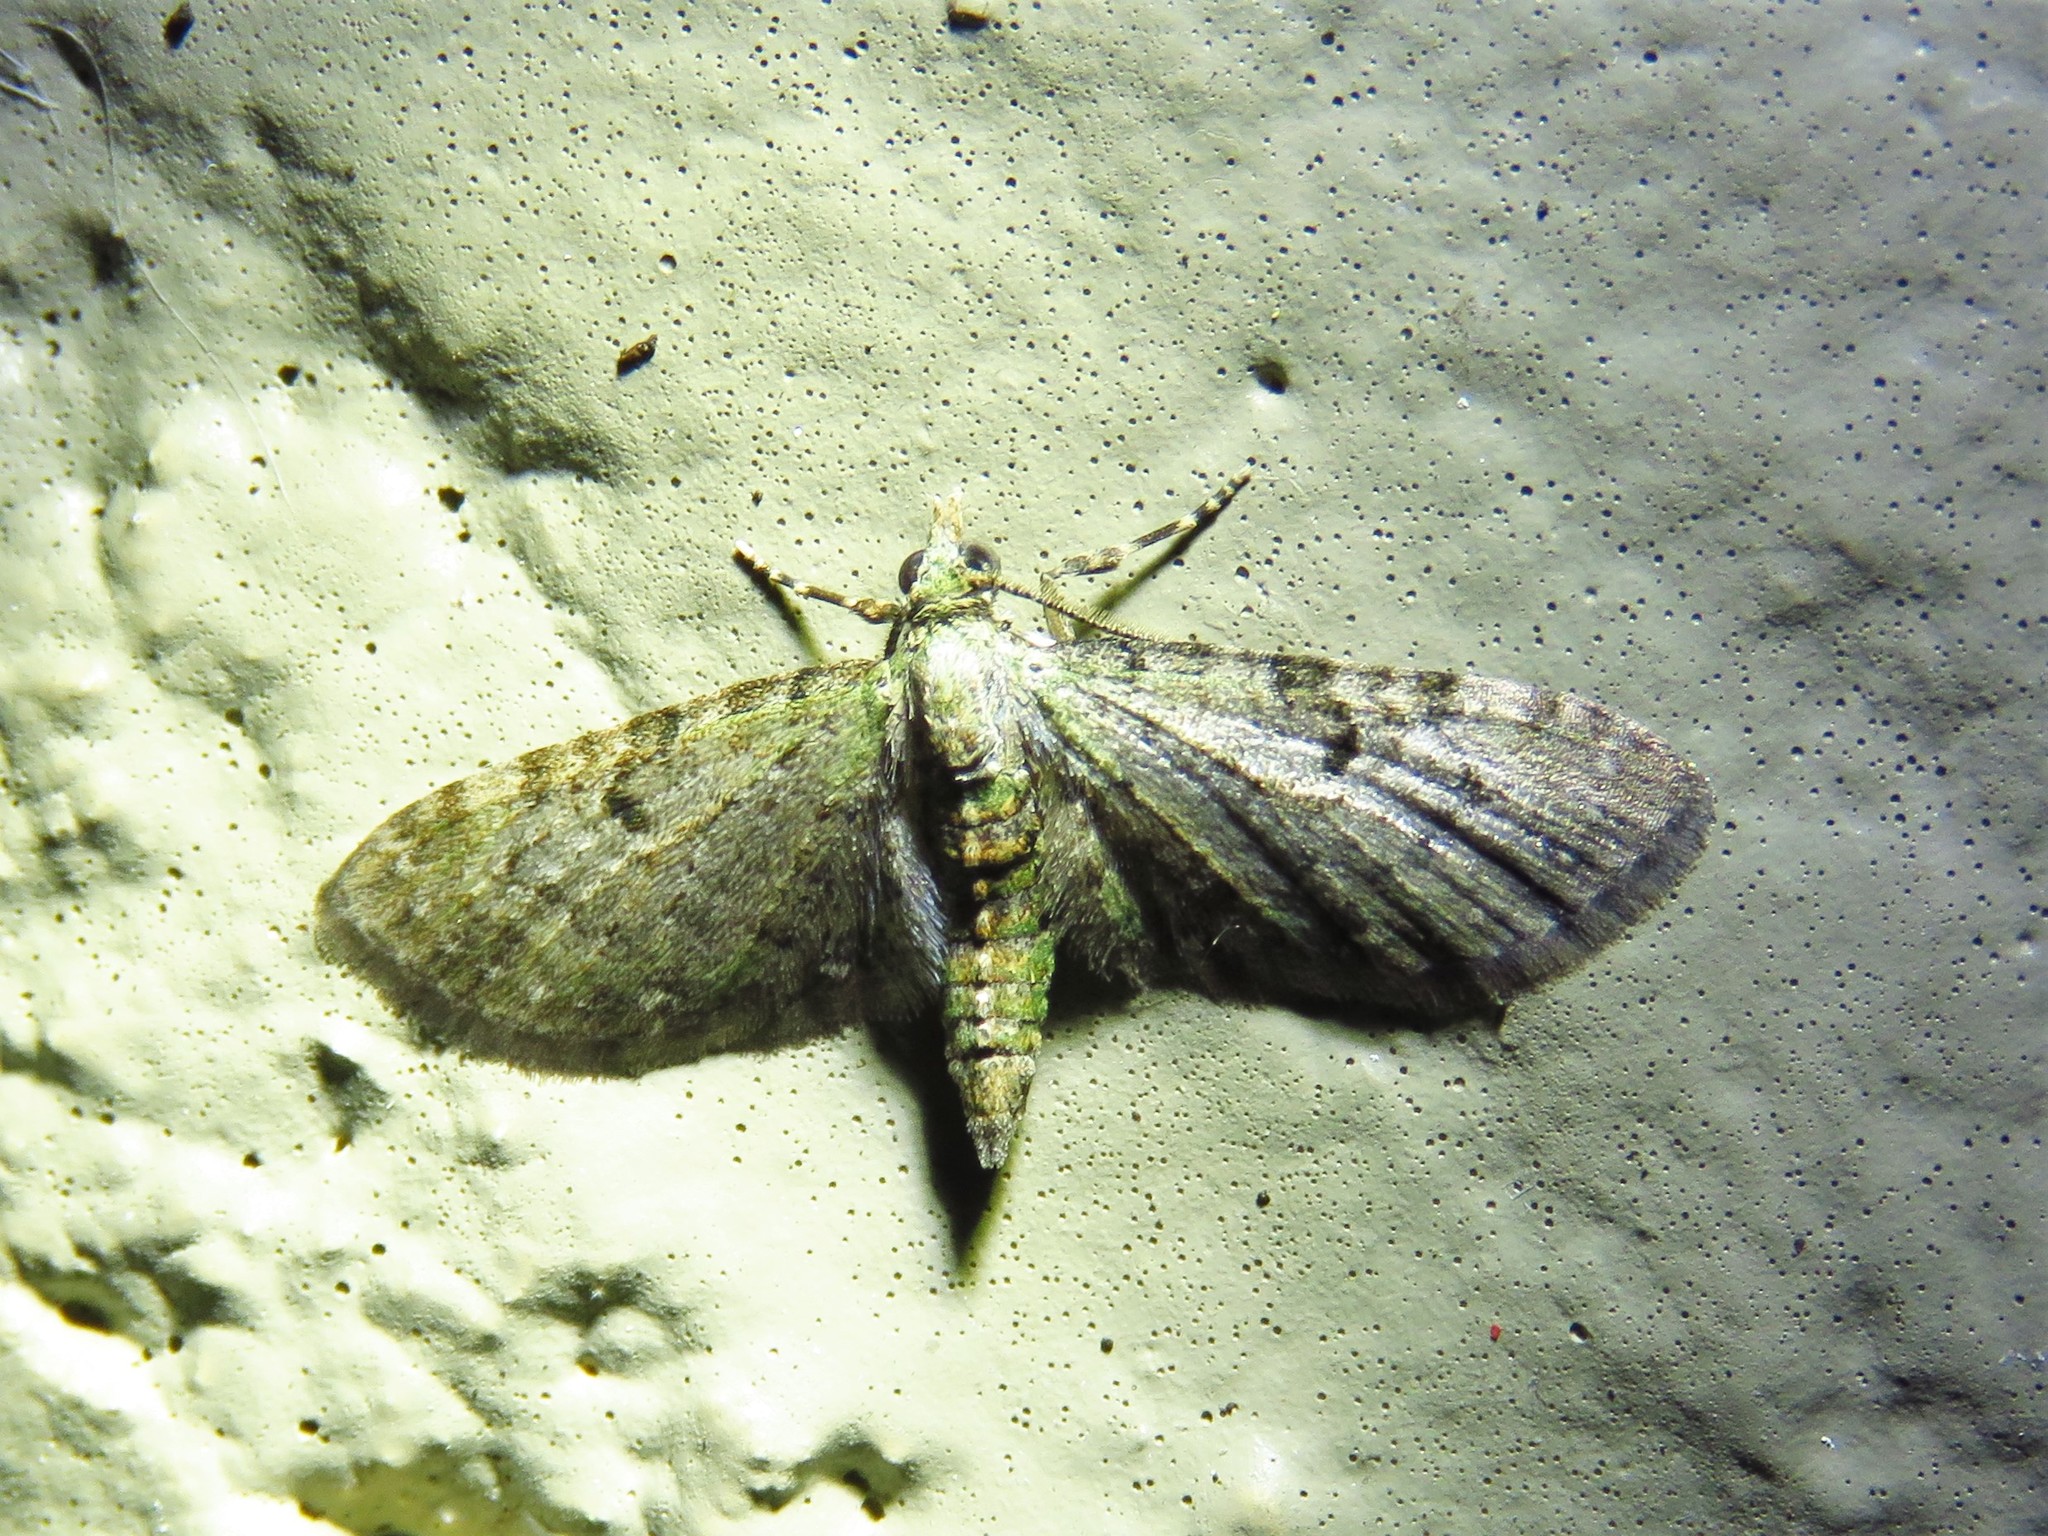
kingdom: Animalia
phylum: Arthropoda
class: Insecta
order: Lepidoptera
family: Geometridae
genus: Eupithecia
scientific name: Eupithecia miserulata
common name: Common eupithecia
